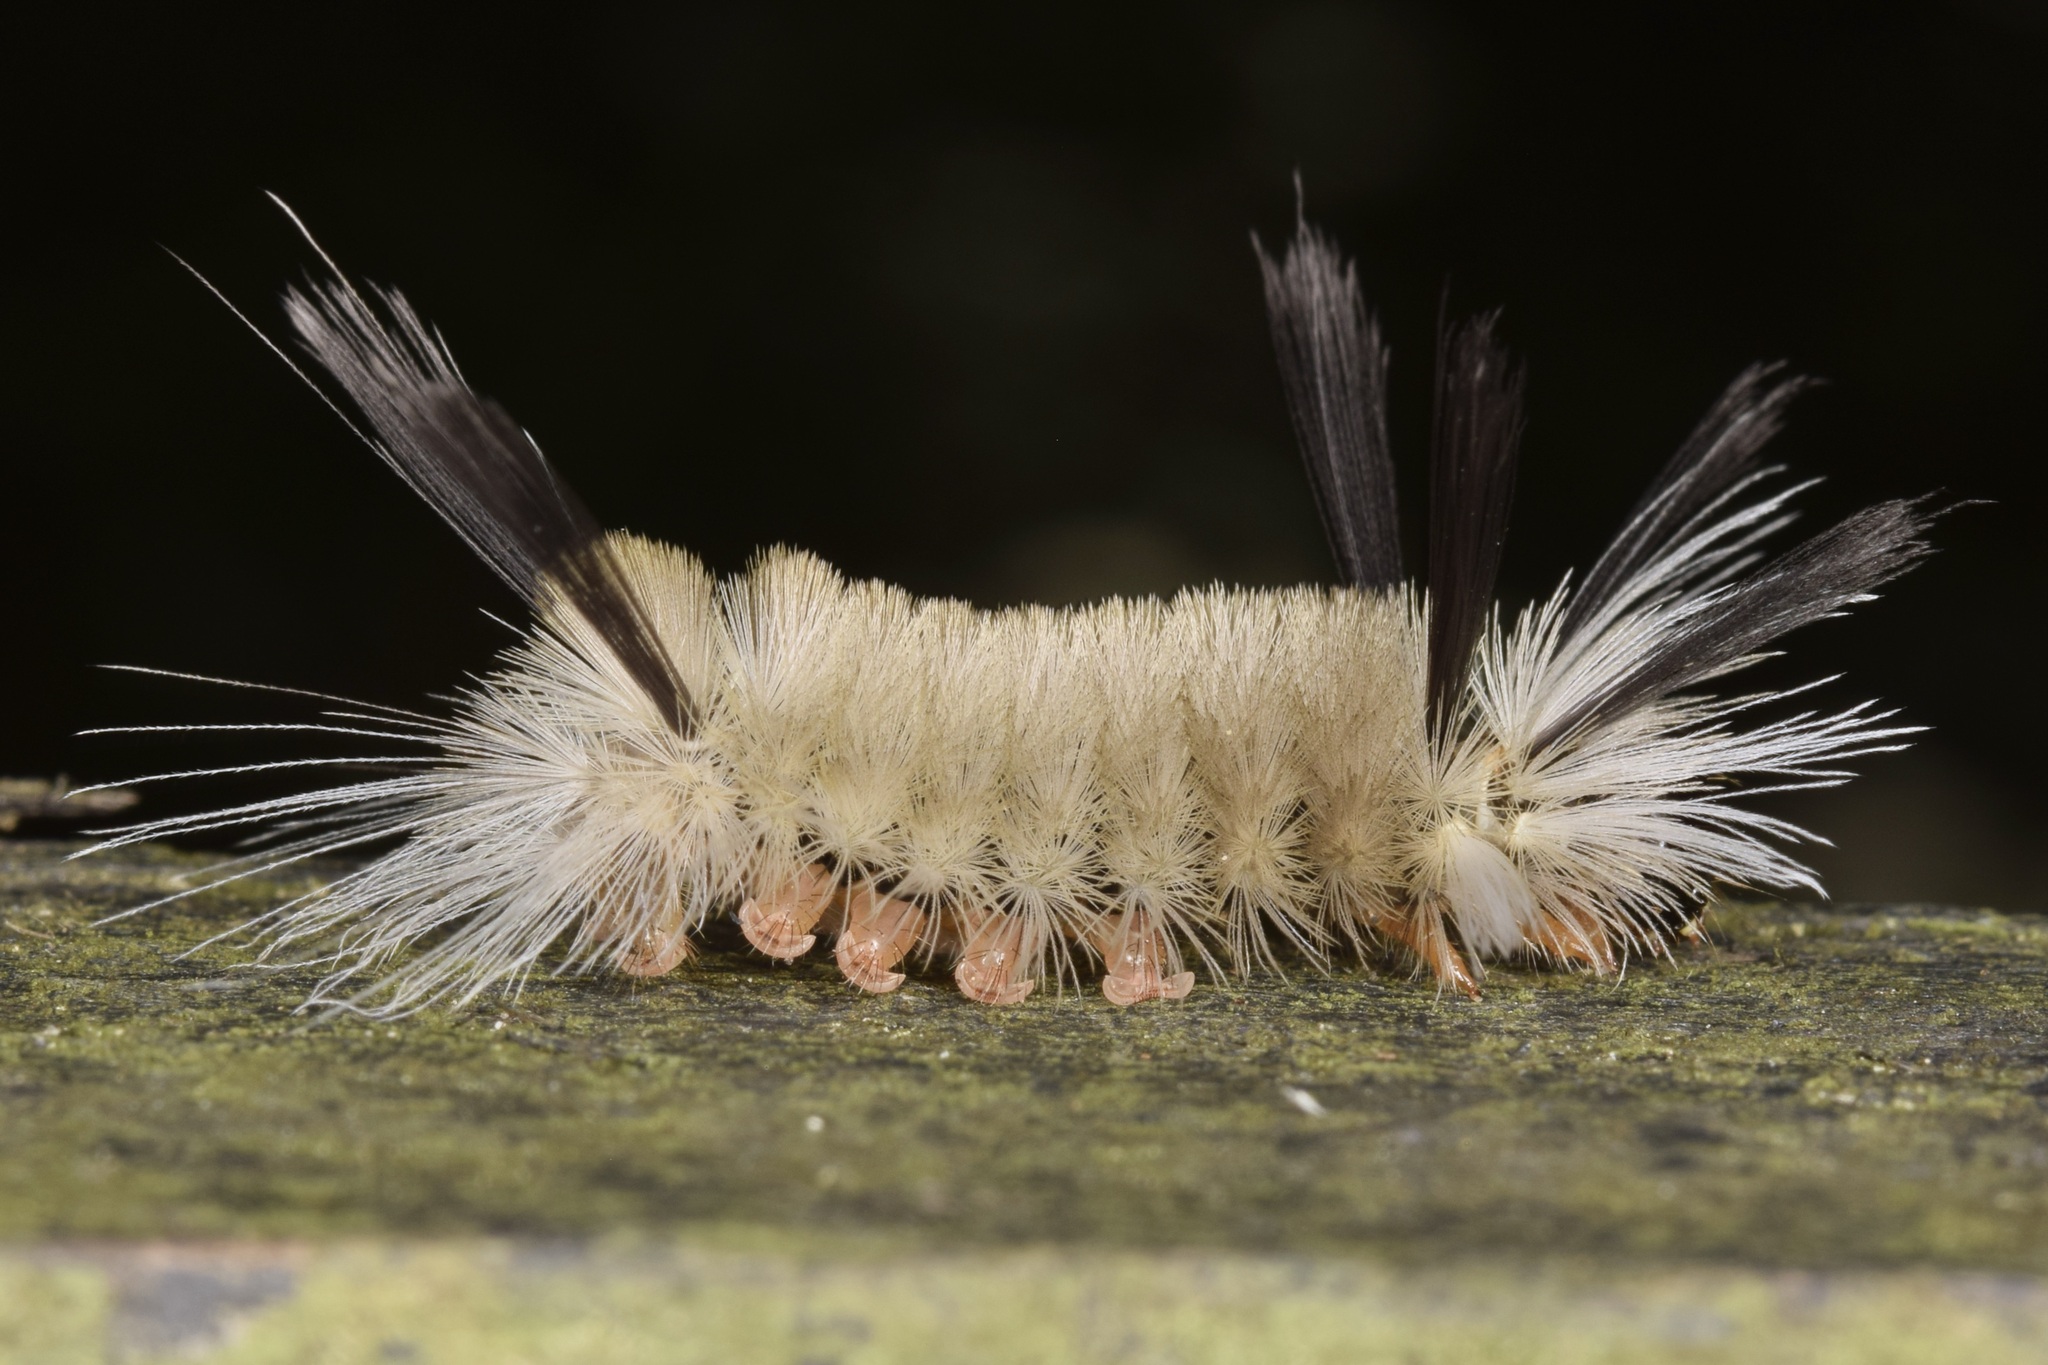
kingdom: Animalia
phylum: Arthropoda
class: Insecta
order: Lepidoptera
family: Erebidae
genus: Halysidota
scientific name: Halysidota tessellaris
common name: Banded tussock moth
